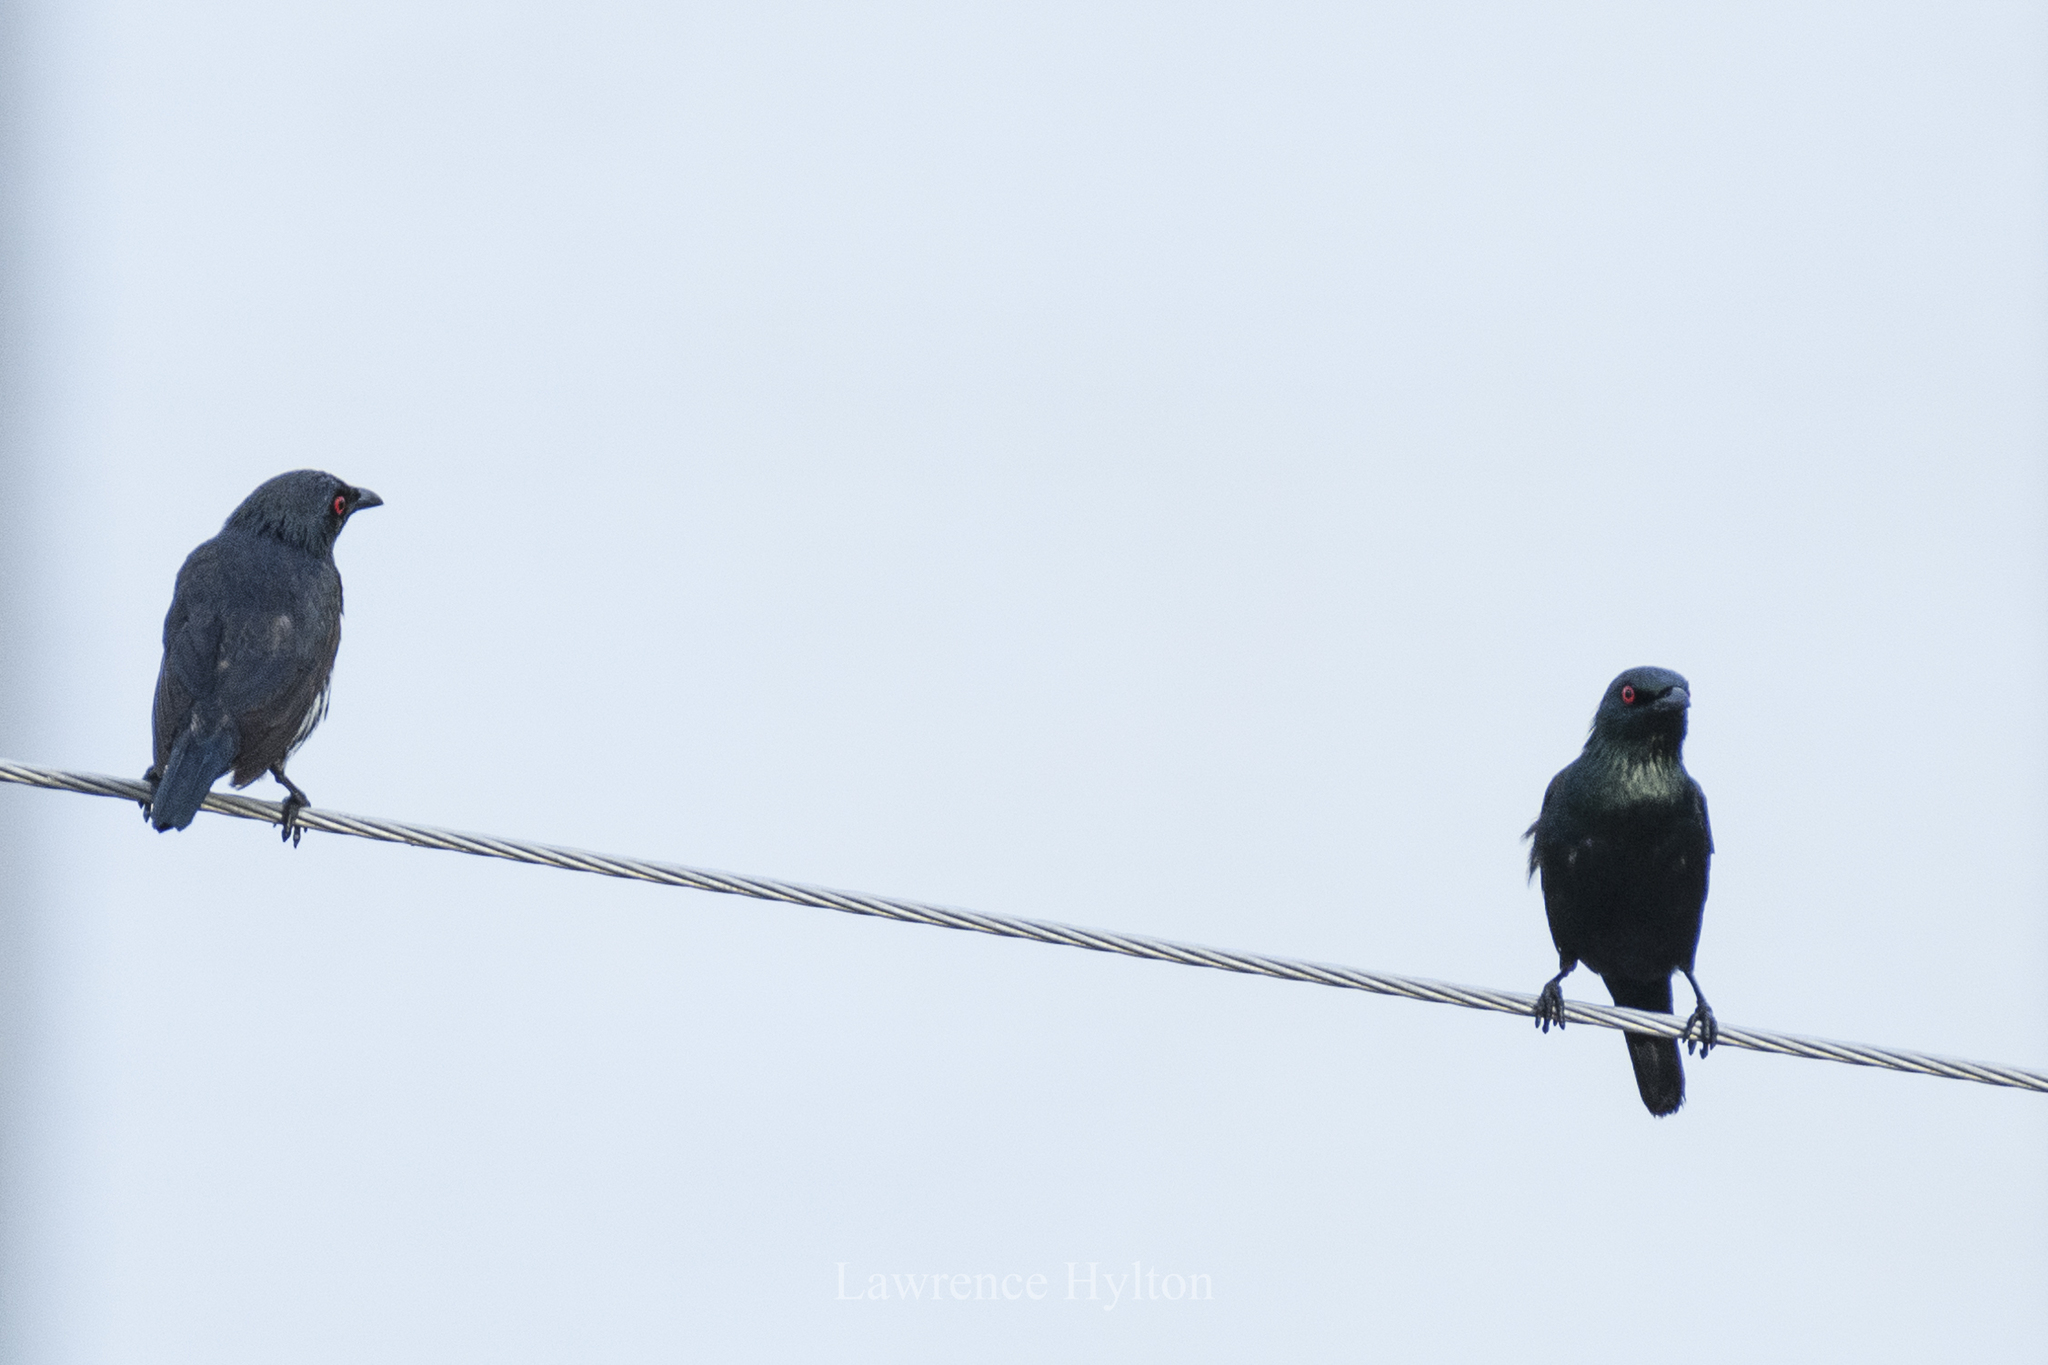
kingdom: Animalia
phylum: Chordata
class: Aves
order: Passeriformes
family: Sturnidae
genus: Aplonis
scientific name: Aplonis panayensis
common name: Asian glossy starling
